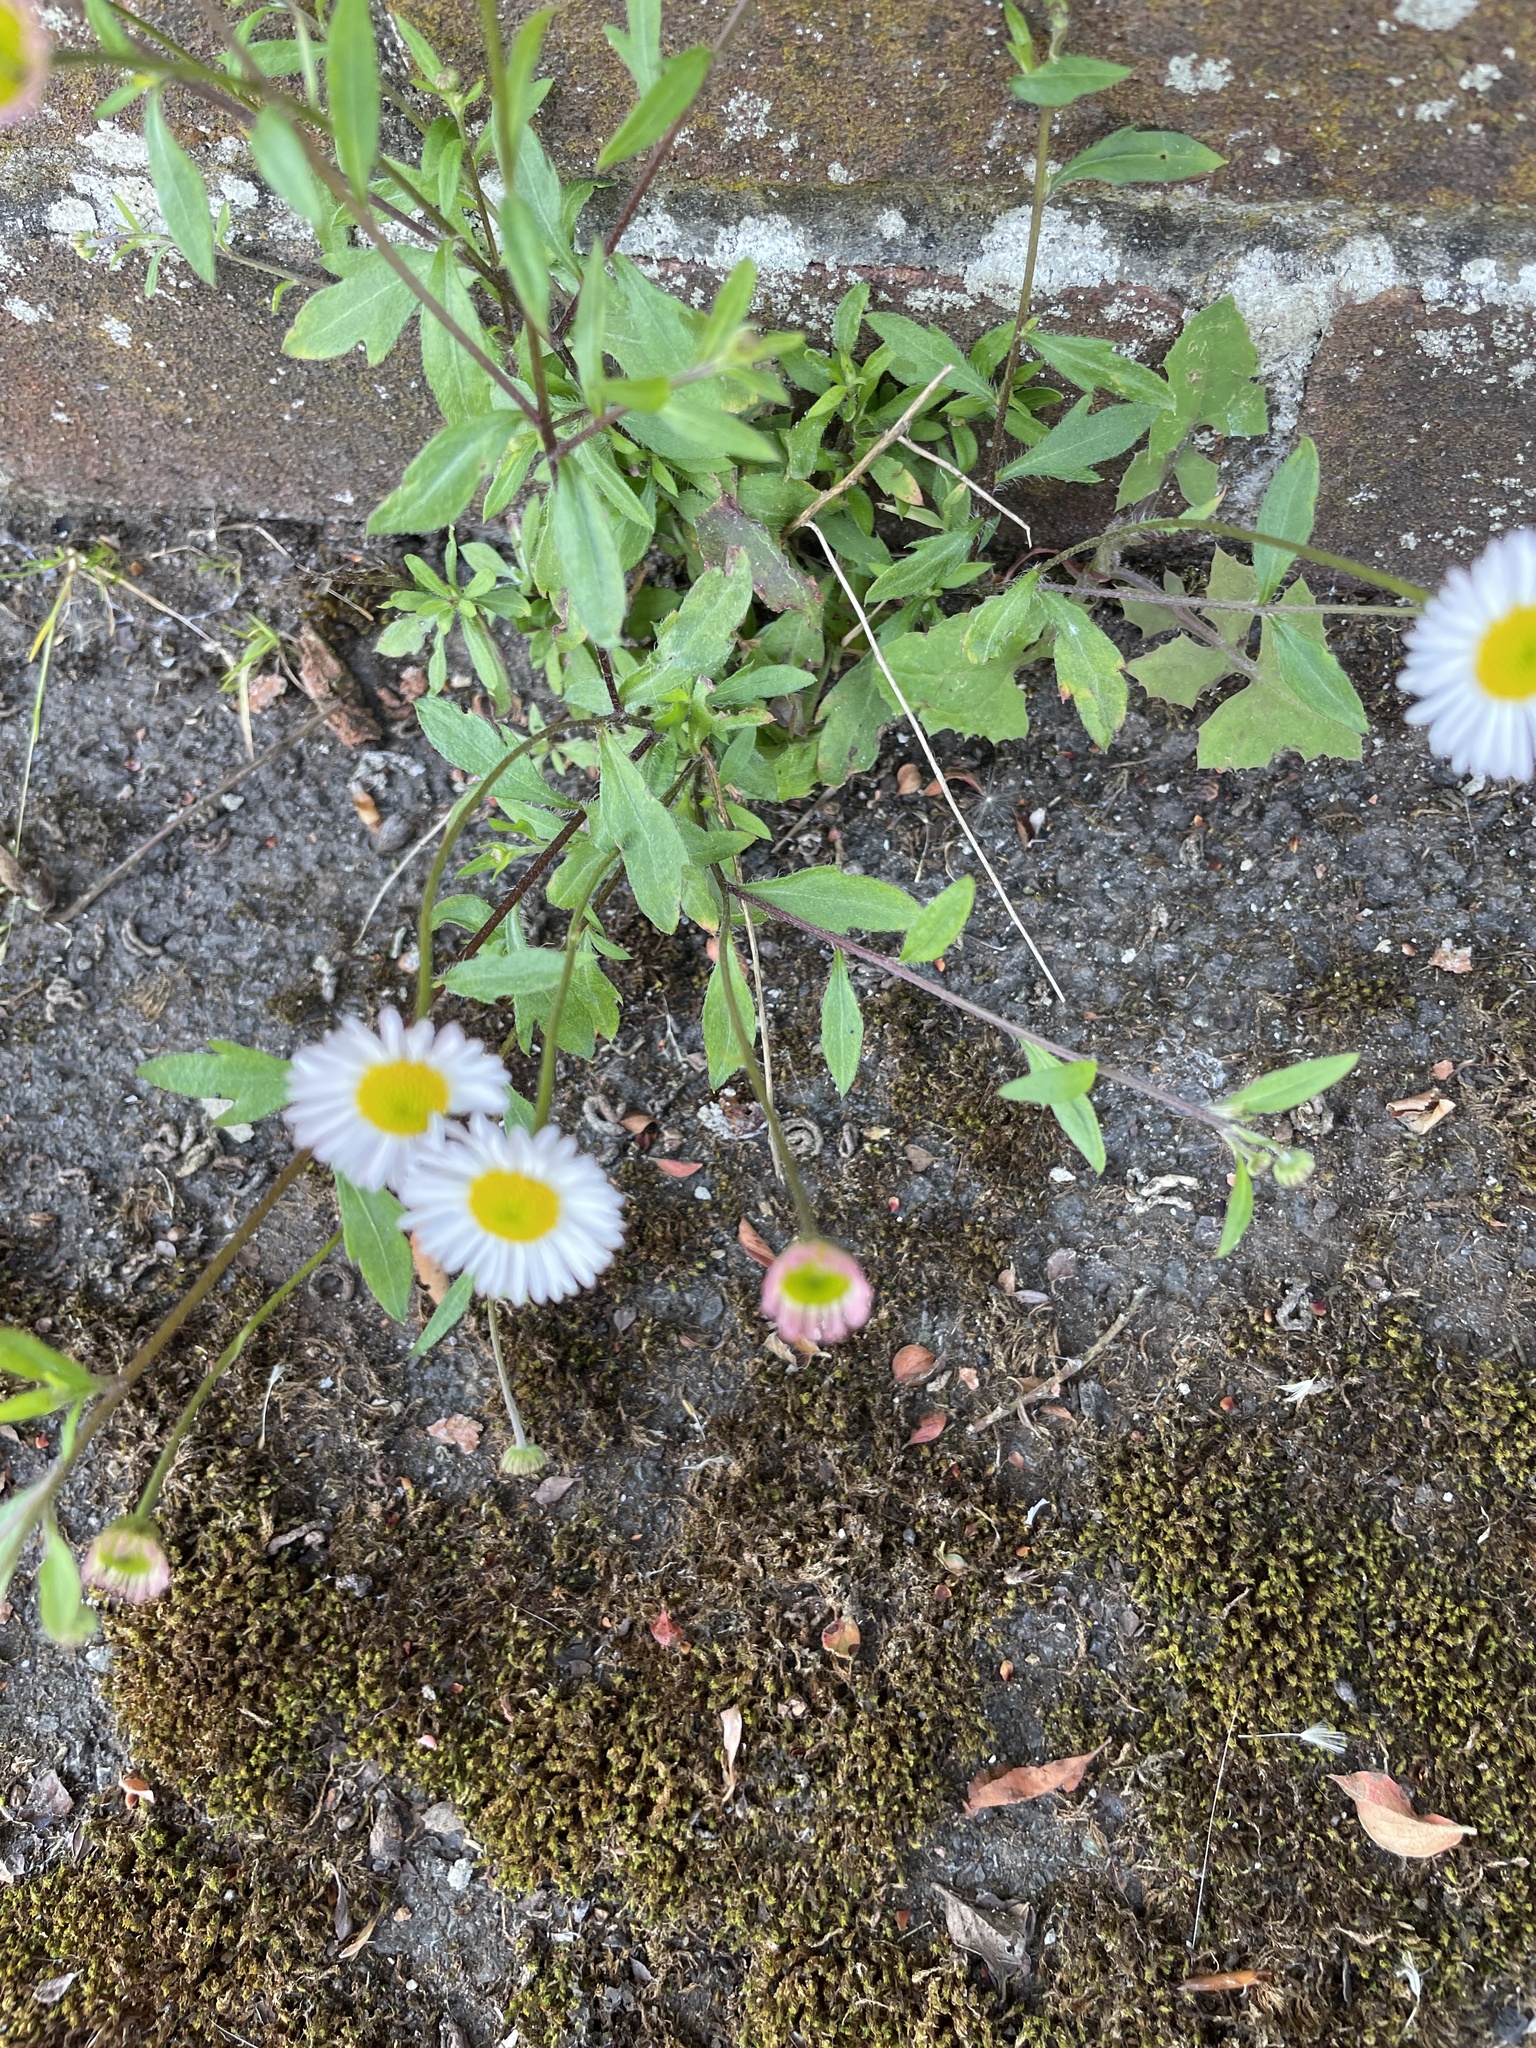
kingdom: Plantae
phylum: Tracheophyta
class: Magnoliopsida
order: Asterales
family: Asteraceae
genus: Erigeron
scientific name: Erigeron karvinskianus
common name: Mexican fleabane
